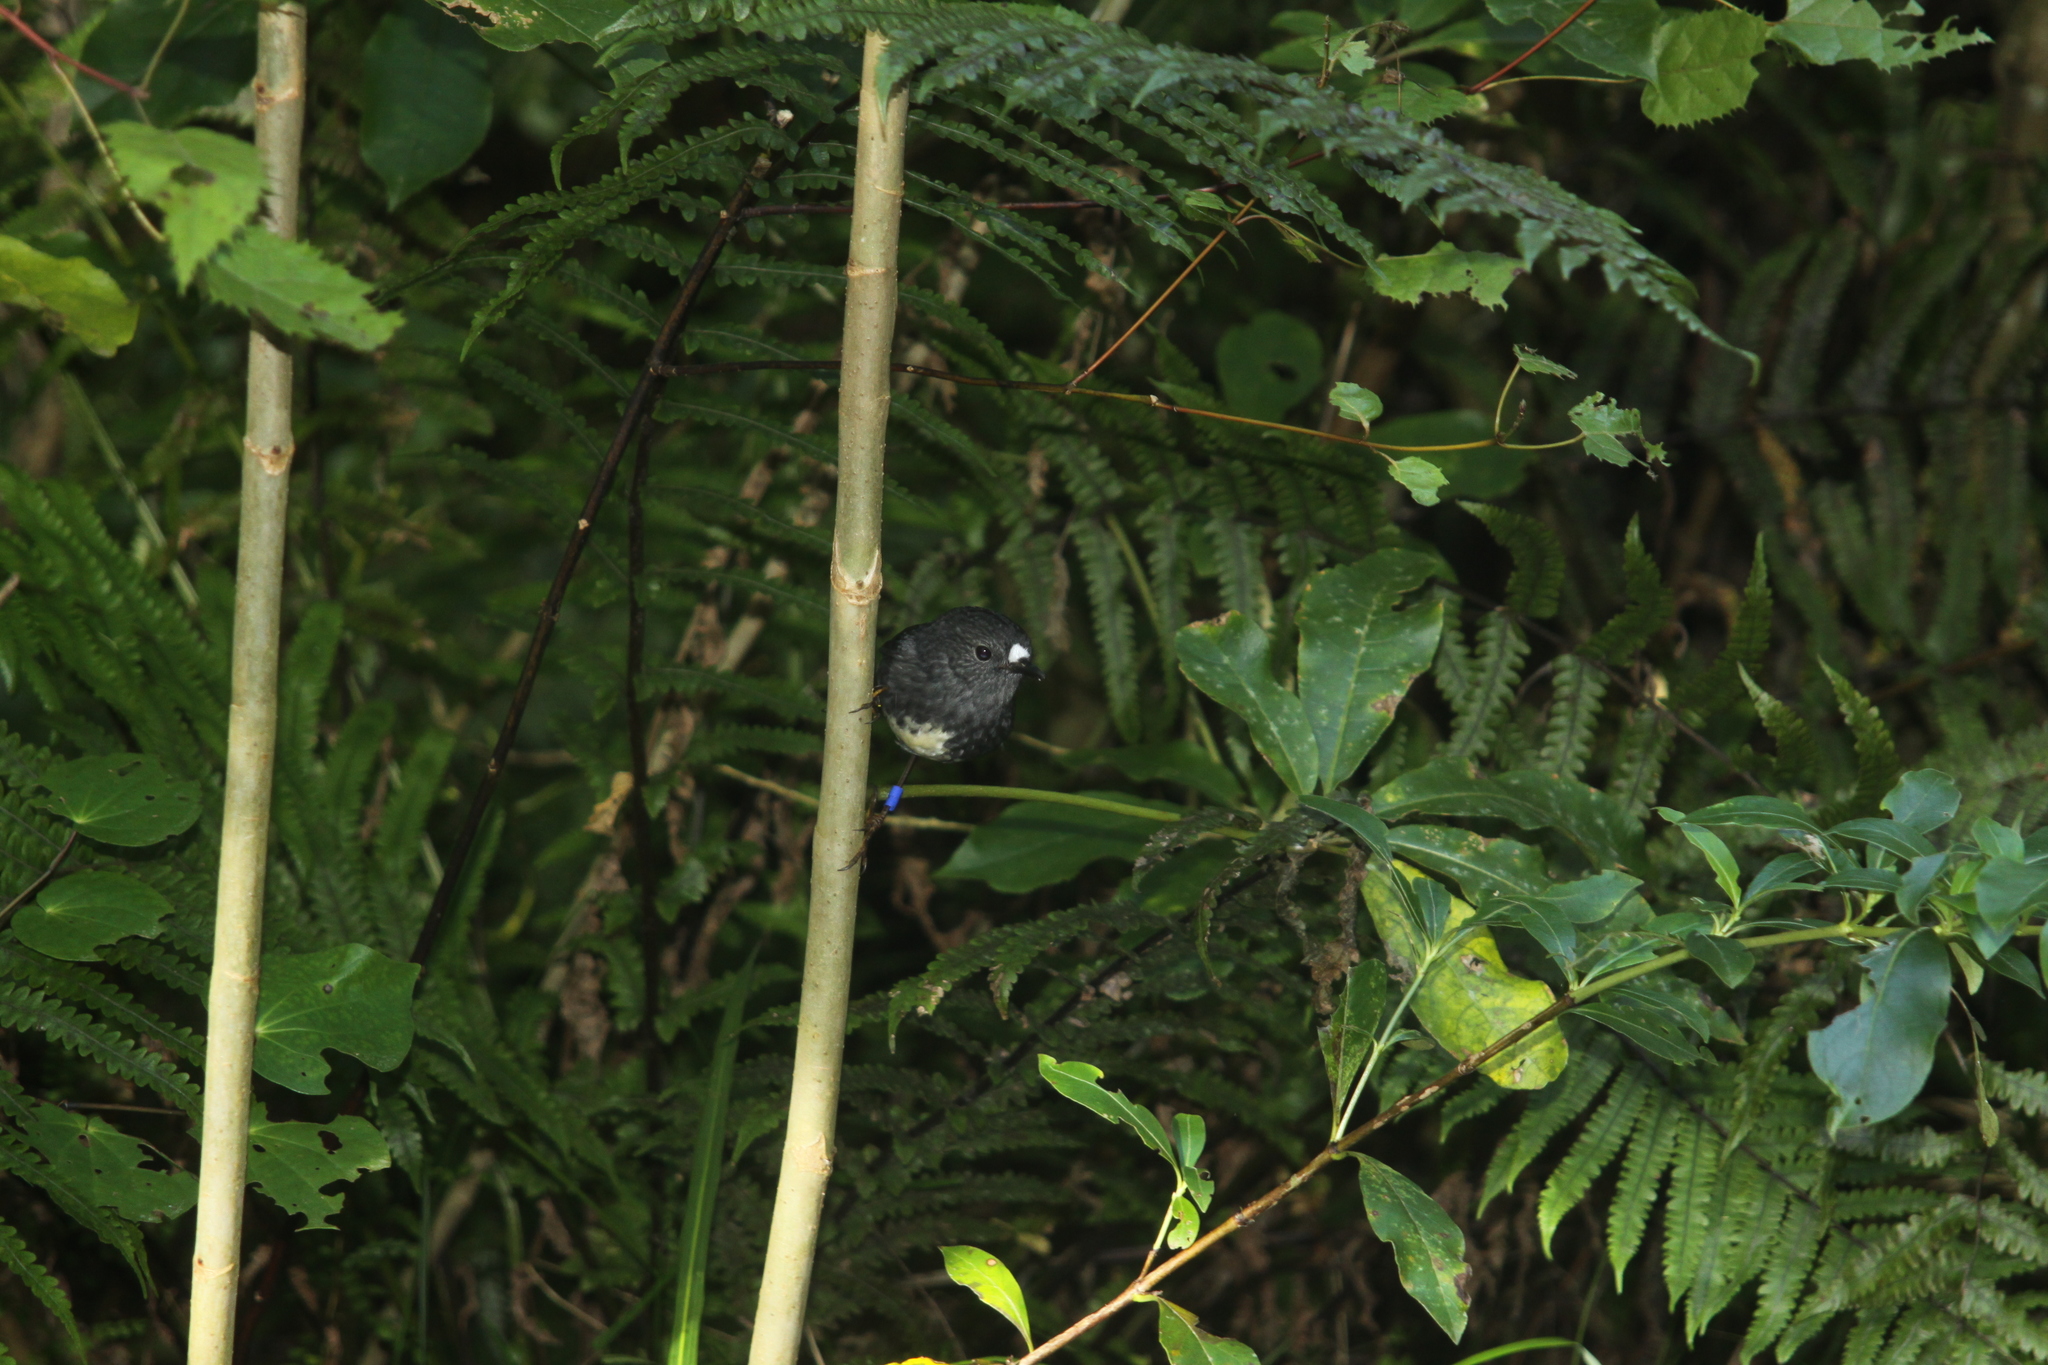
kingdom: Animalia
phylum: Chordata
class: Aves
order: Passeriformes
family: Petroicidae
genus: Petroica
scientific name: Petroica australis
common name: New zealand robin
